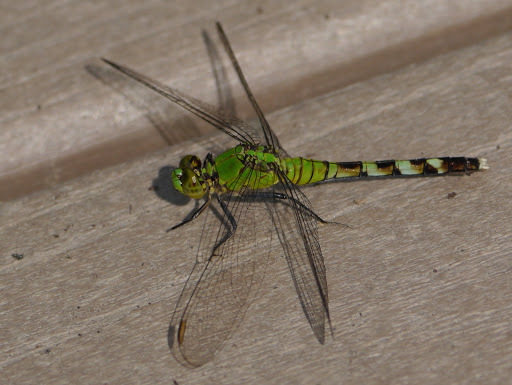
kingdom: Animalia
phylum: Arthropoda
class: Insecta
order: Odonata
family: Libellulidae
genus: Erythemis
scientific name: Erythemis simplicicollis
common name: Eastern pondhawk
